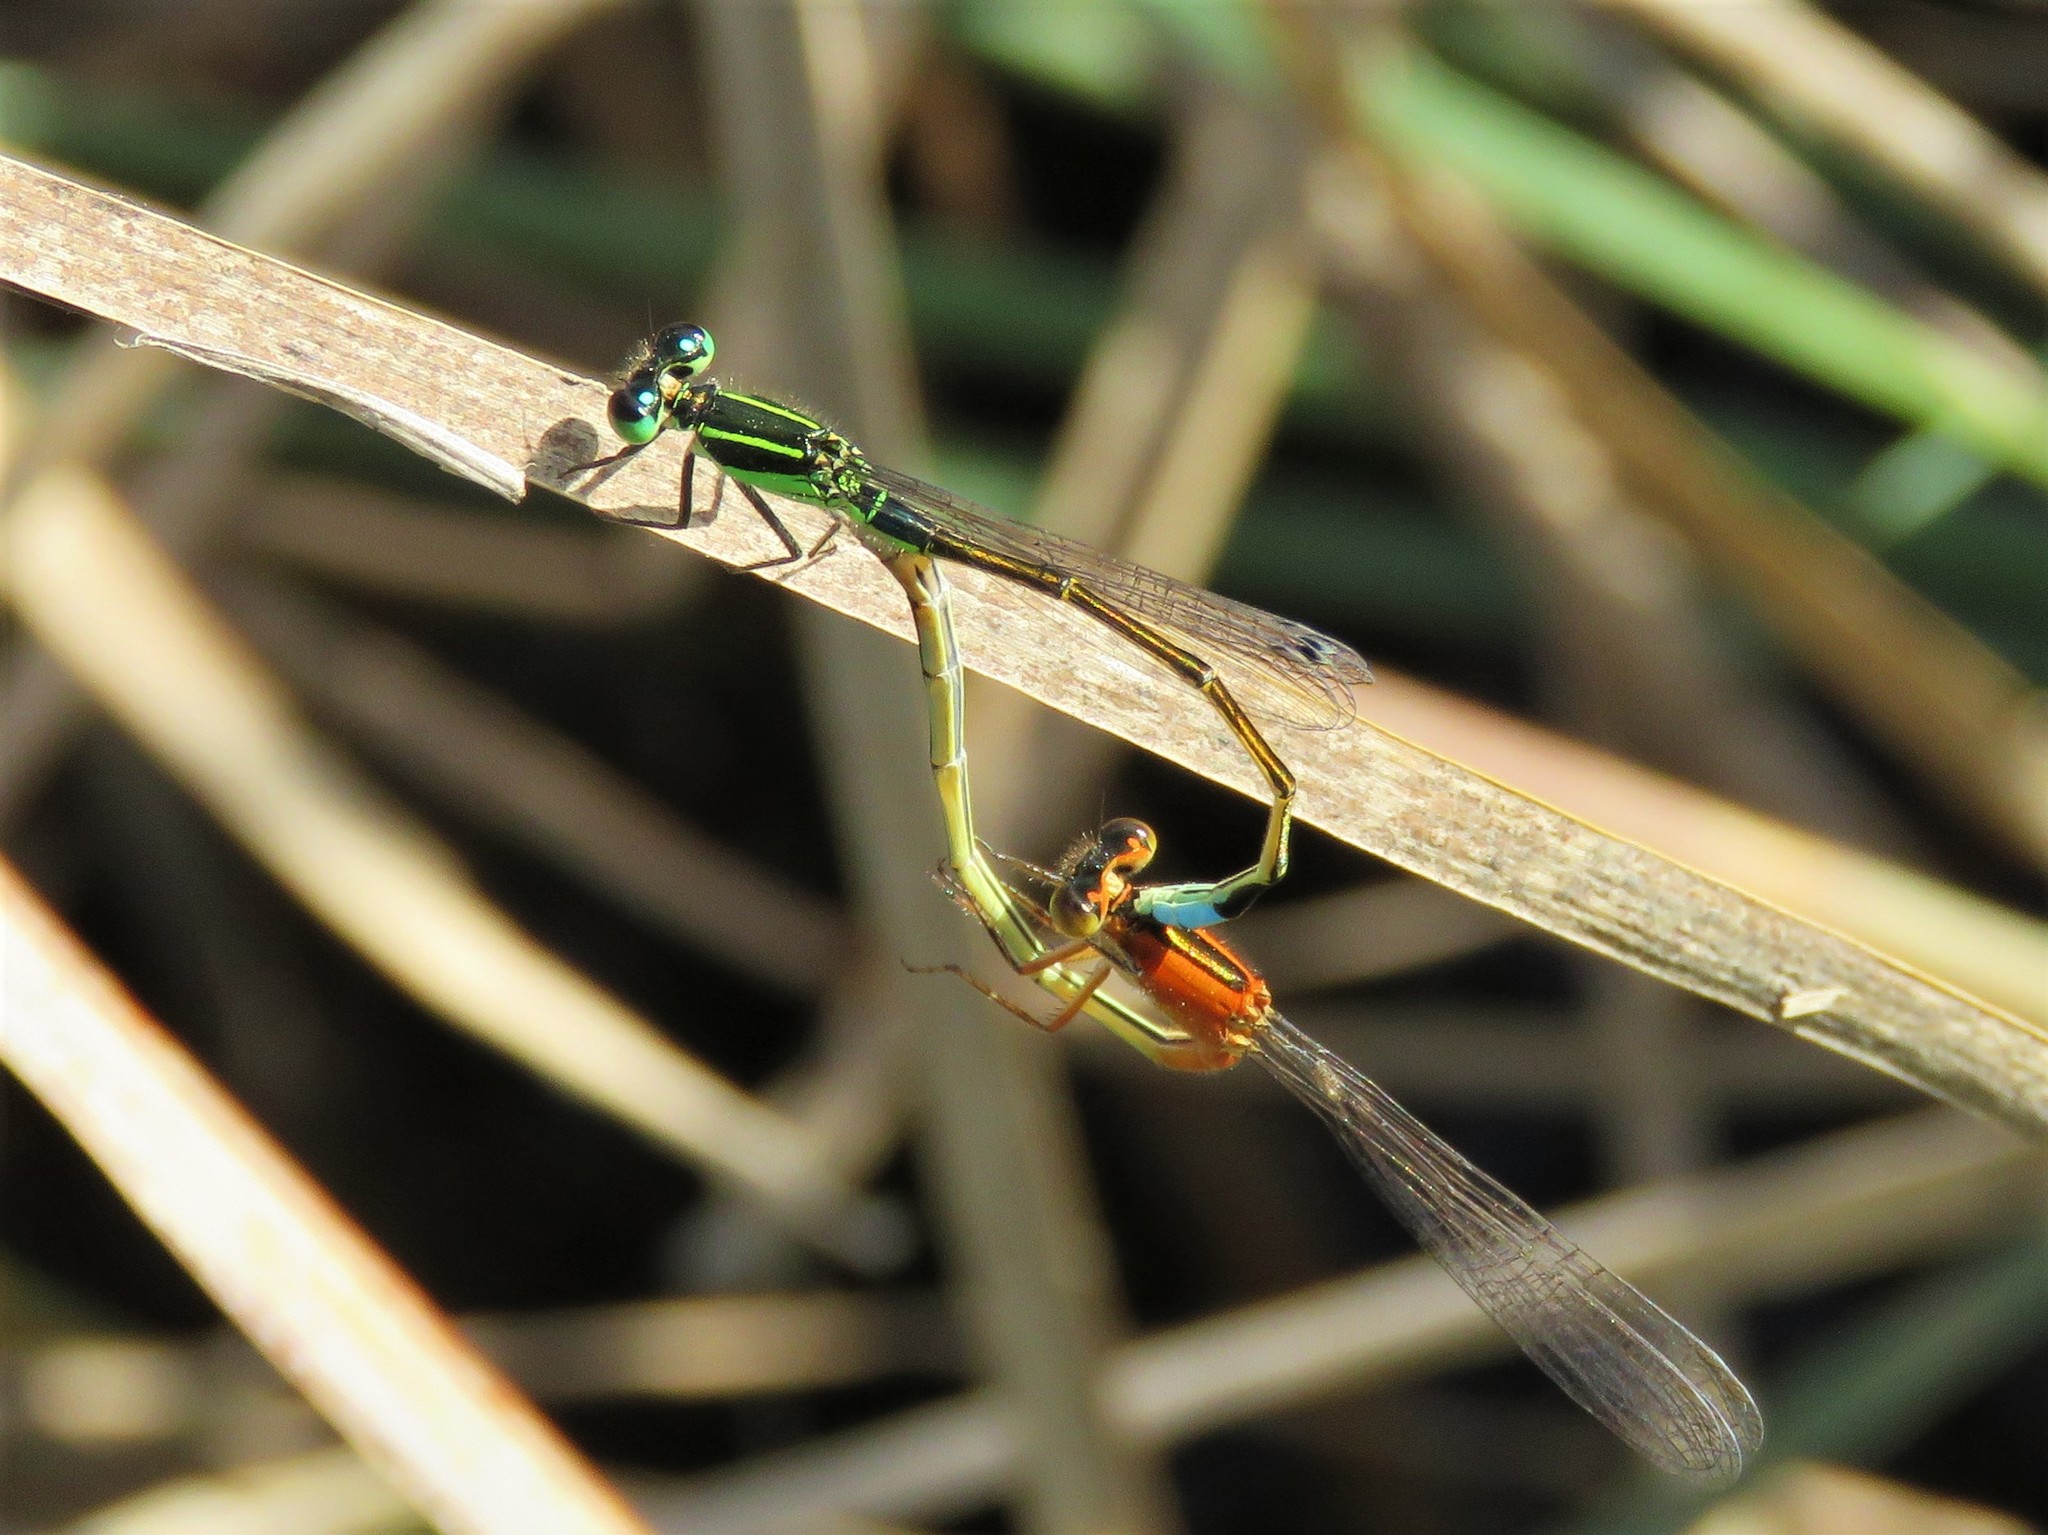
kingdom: Animalia
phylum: Arthropoda
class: Insecta
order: Odonata
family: Coenagrionidae
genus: Ischnura
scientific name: Ischnura ramburii
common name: Rambur's forktail
